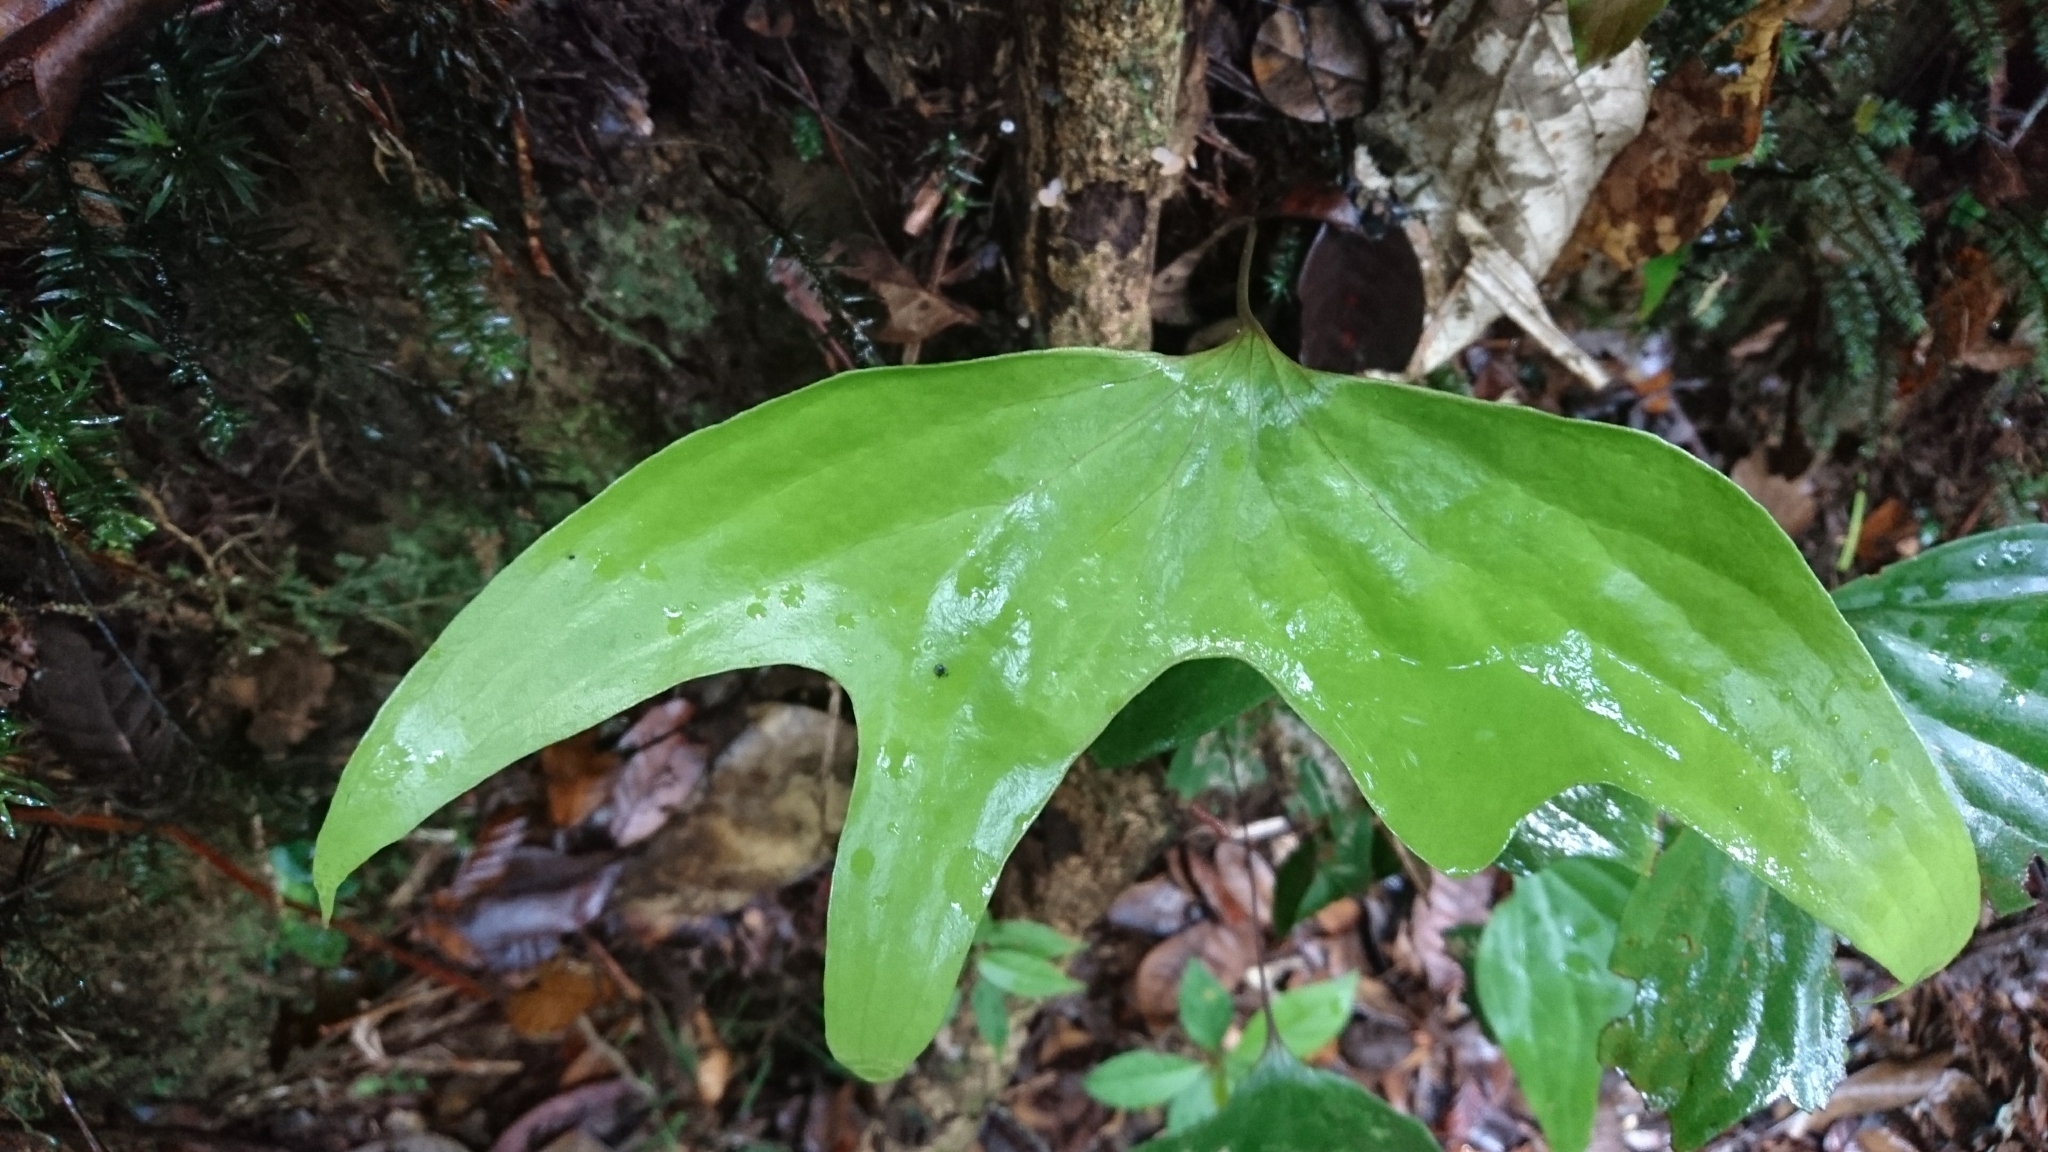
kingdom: Plantae
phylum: Tracheophyta
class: Polypodiopsida
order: Gleicheniales
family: Dipteridaceae
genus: Cheiropleuria
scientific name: Cheiropleuria bicuspis
